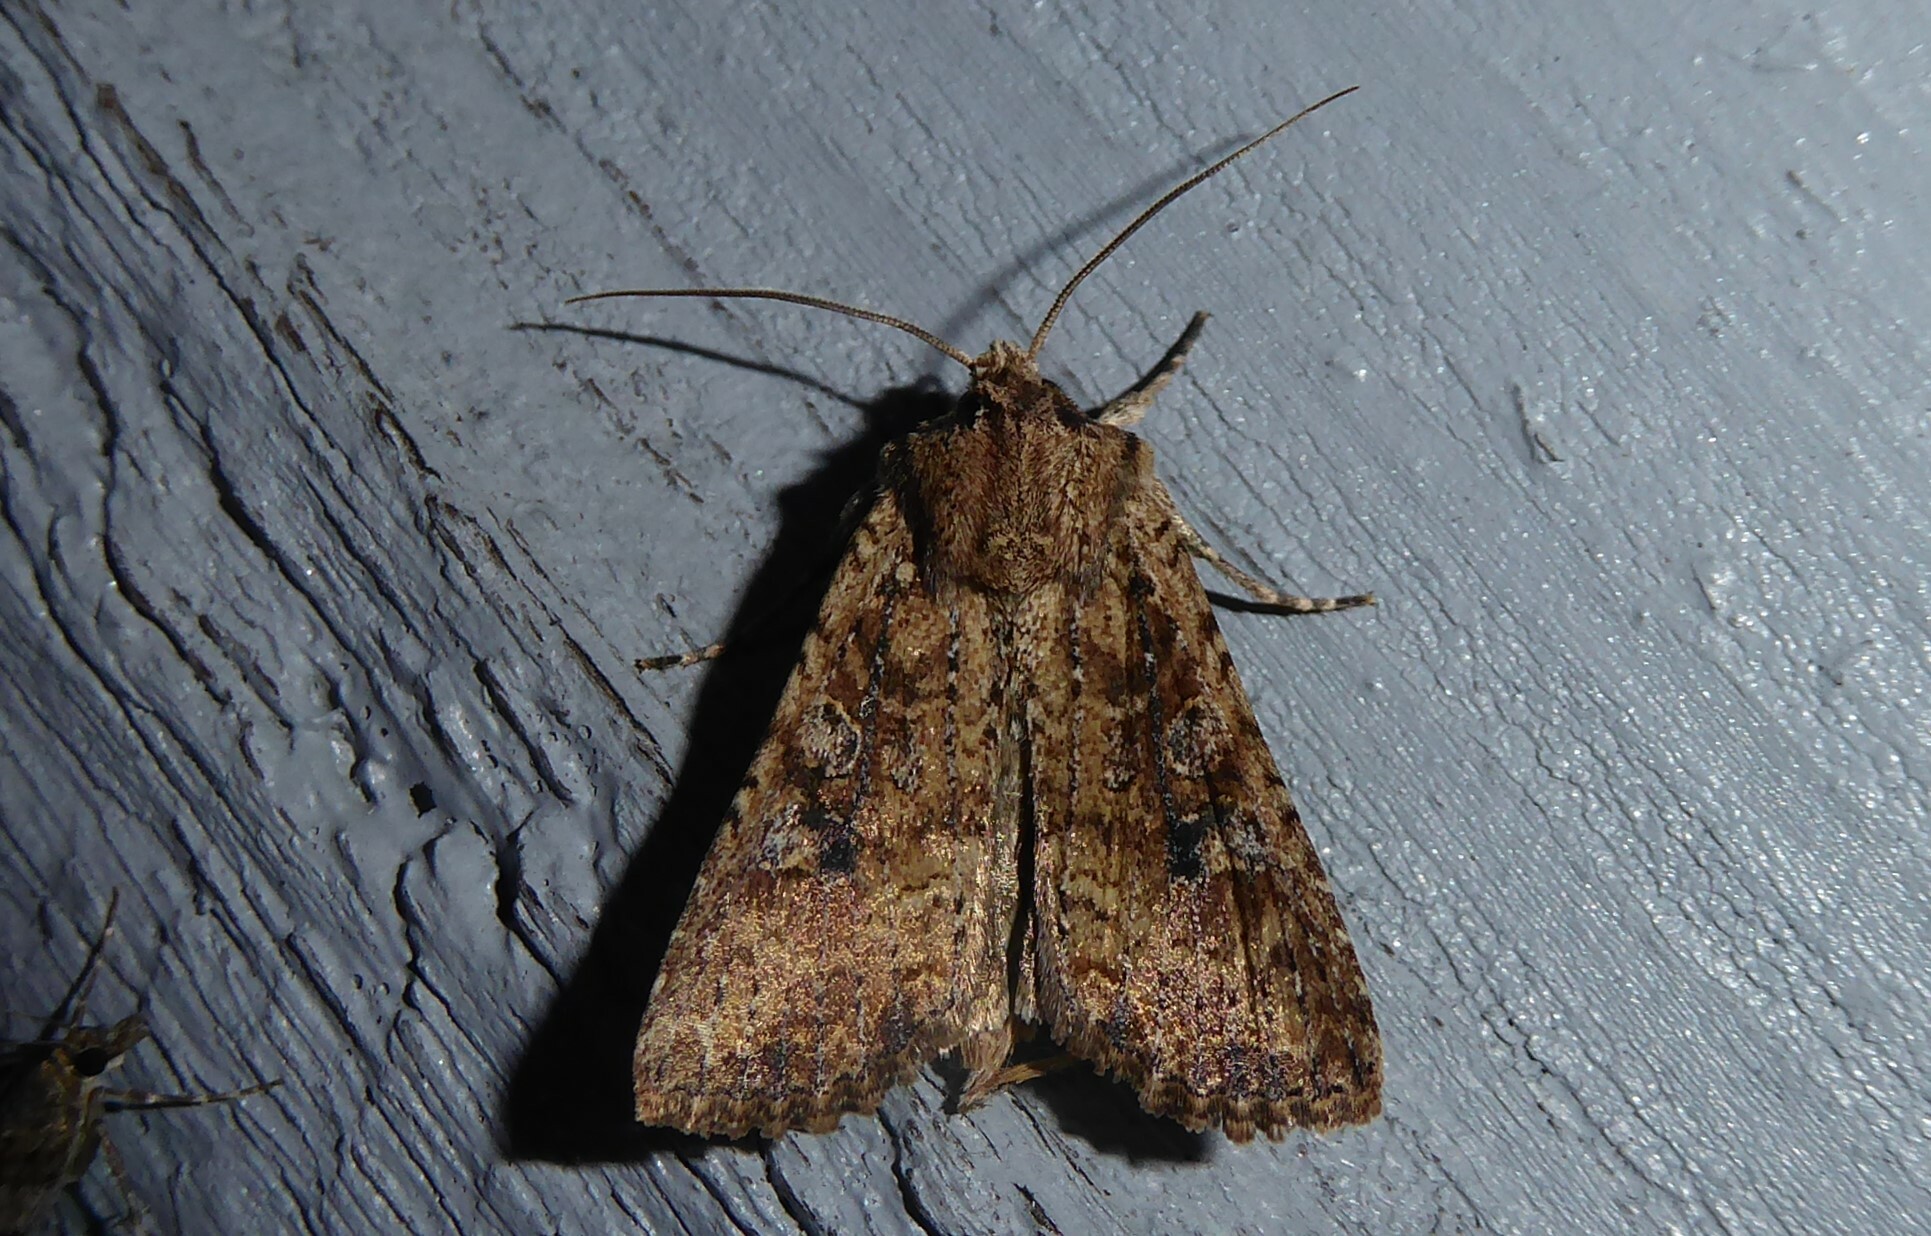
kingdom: Animalia
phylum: Arthropoda
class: Insecta
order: Lepidoptera
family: Noctuidae
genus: Ichneutica
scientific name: Ichneutica morosa
